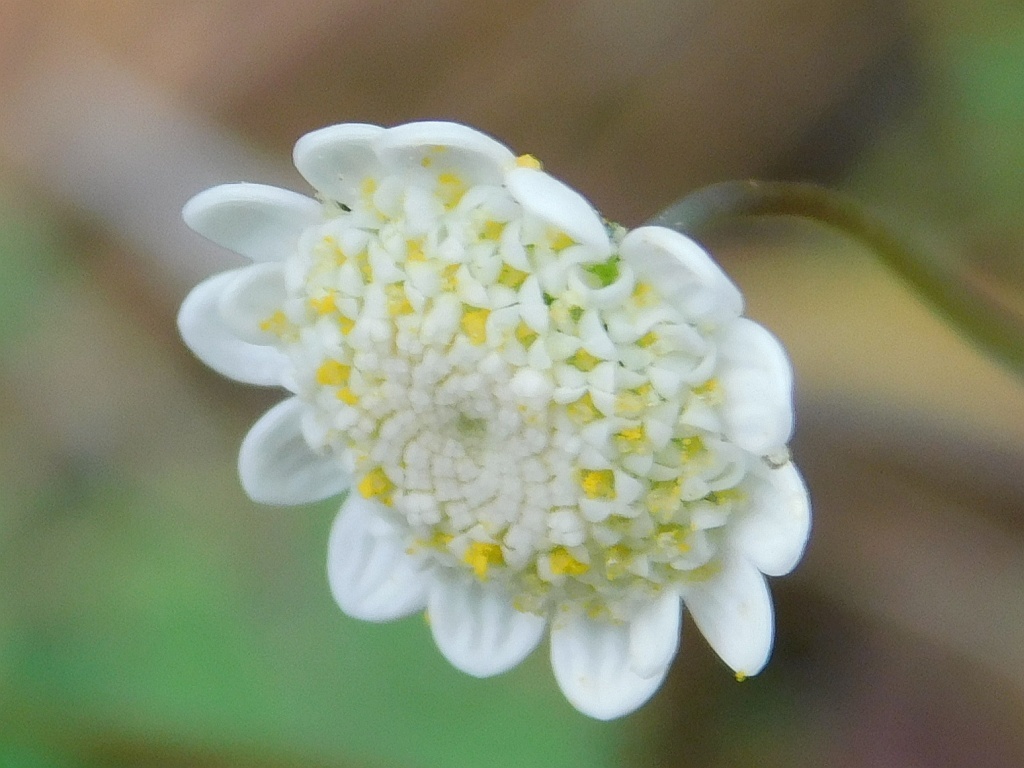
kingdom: Plantae
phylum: Tracheophyta
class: Magnoliopsida
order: Asterales
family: Asteraceae
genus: Cotula
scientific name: Cotula turbinata
